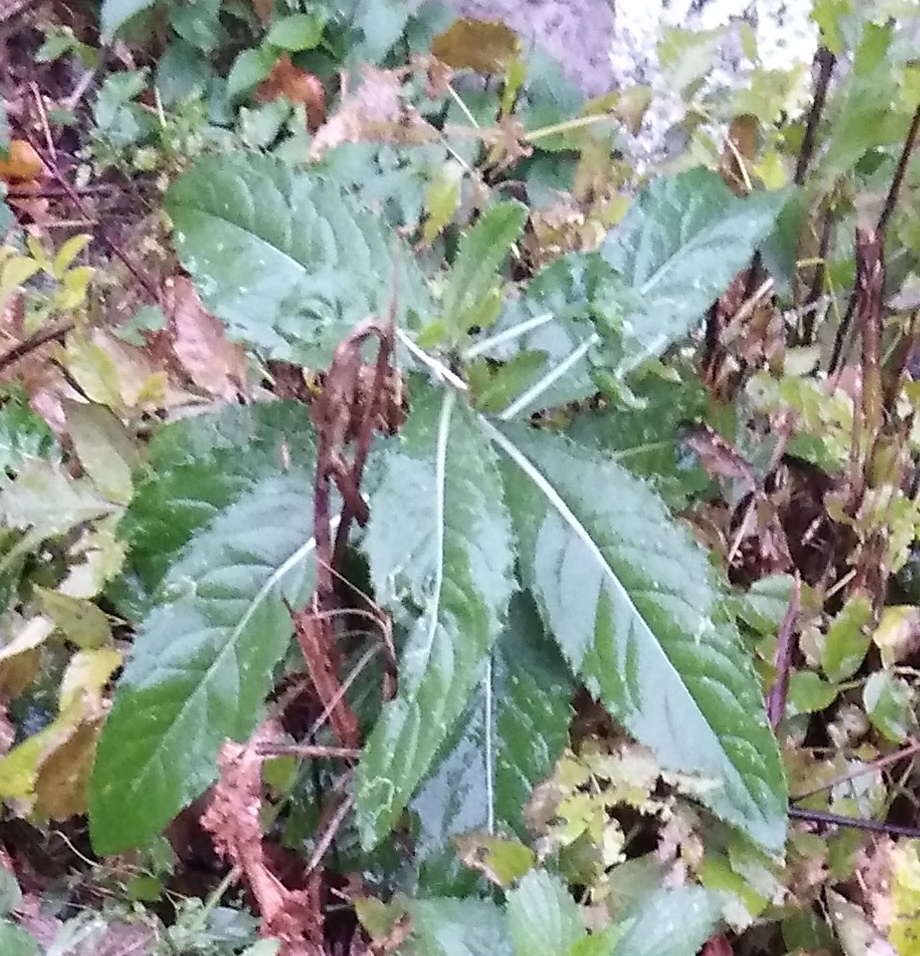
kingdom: Plantae
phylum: Tracheophyta
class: Magnoliopsida
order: Asterales
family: Asteraceae
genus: Cirsium
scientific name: Cirsium arvense
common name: Creeping thistle
